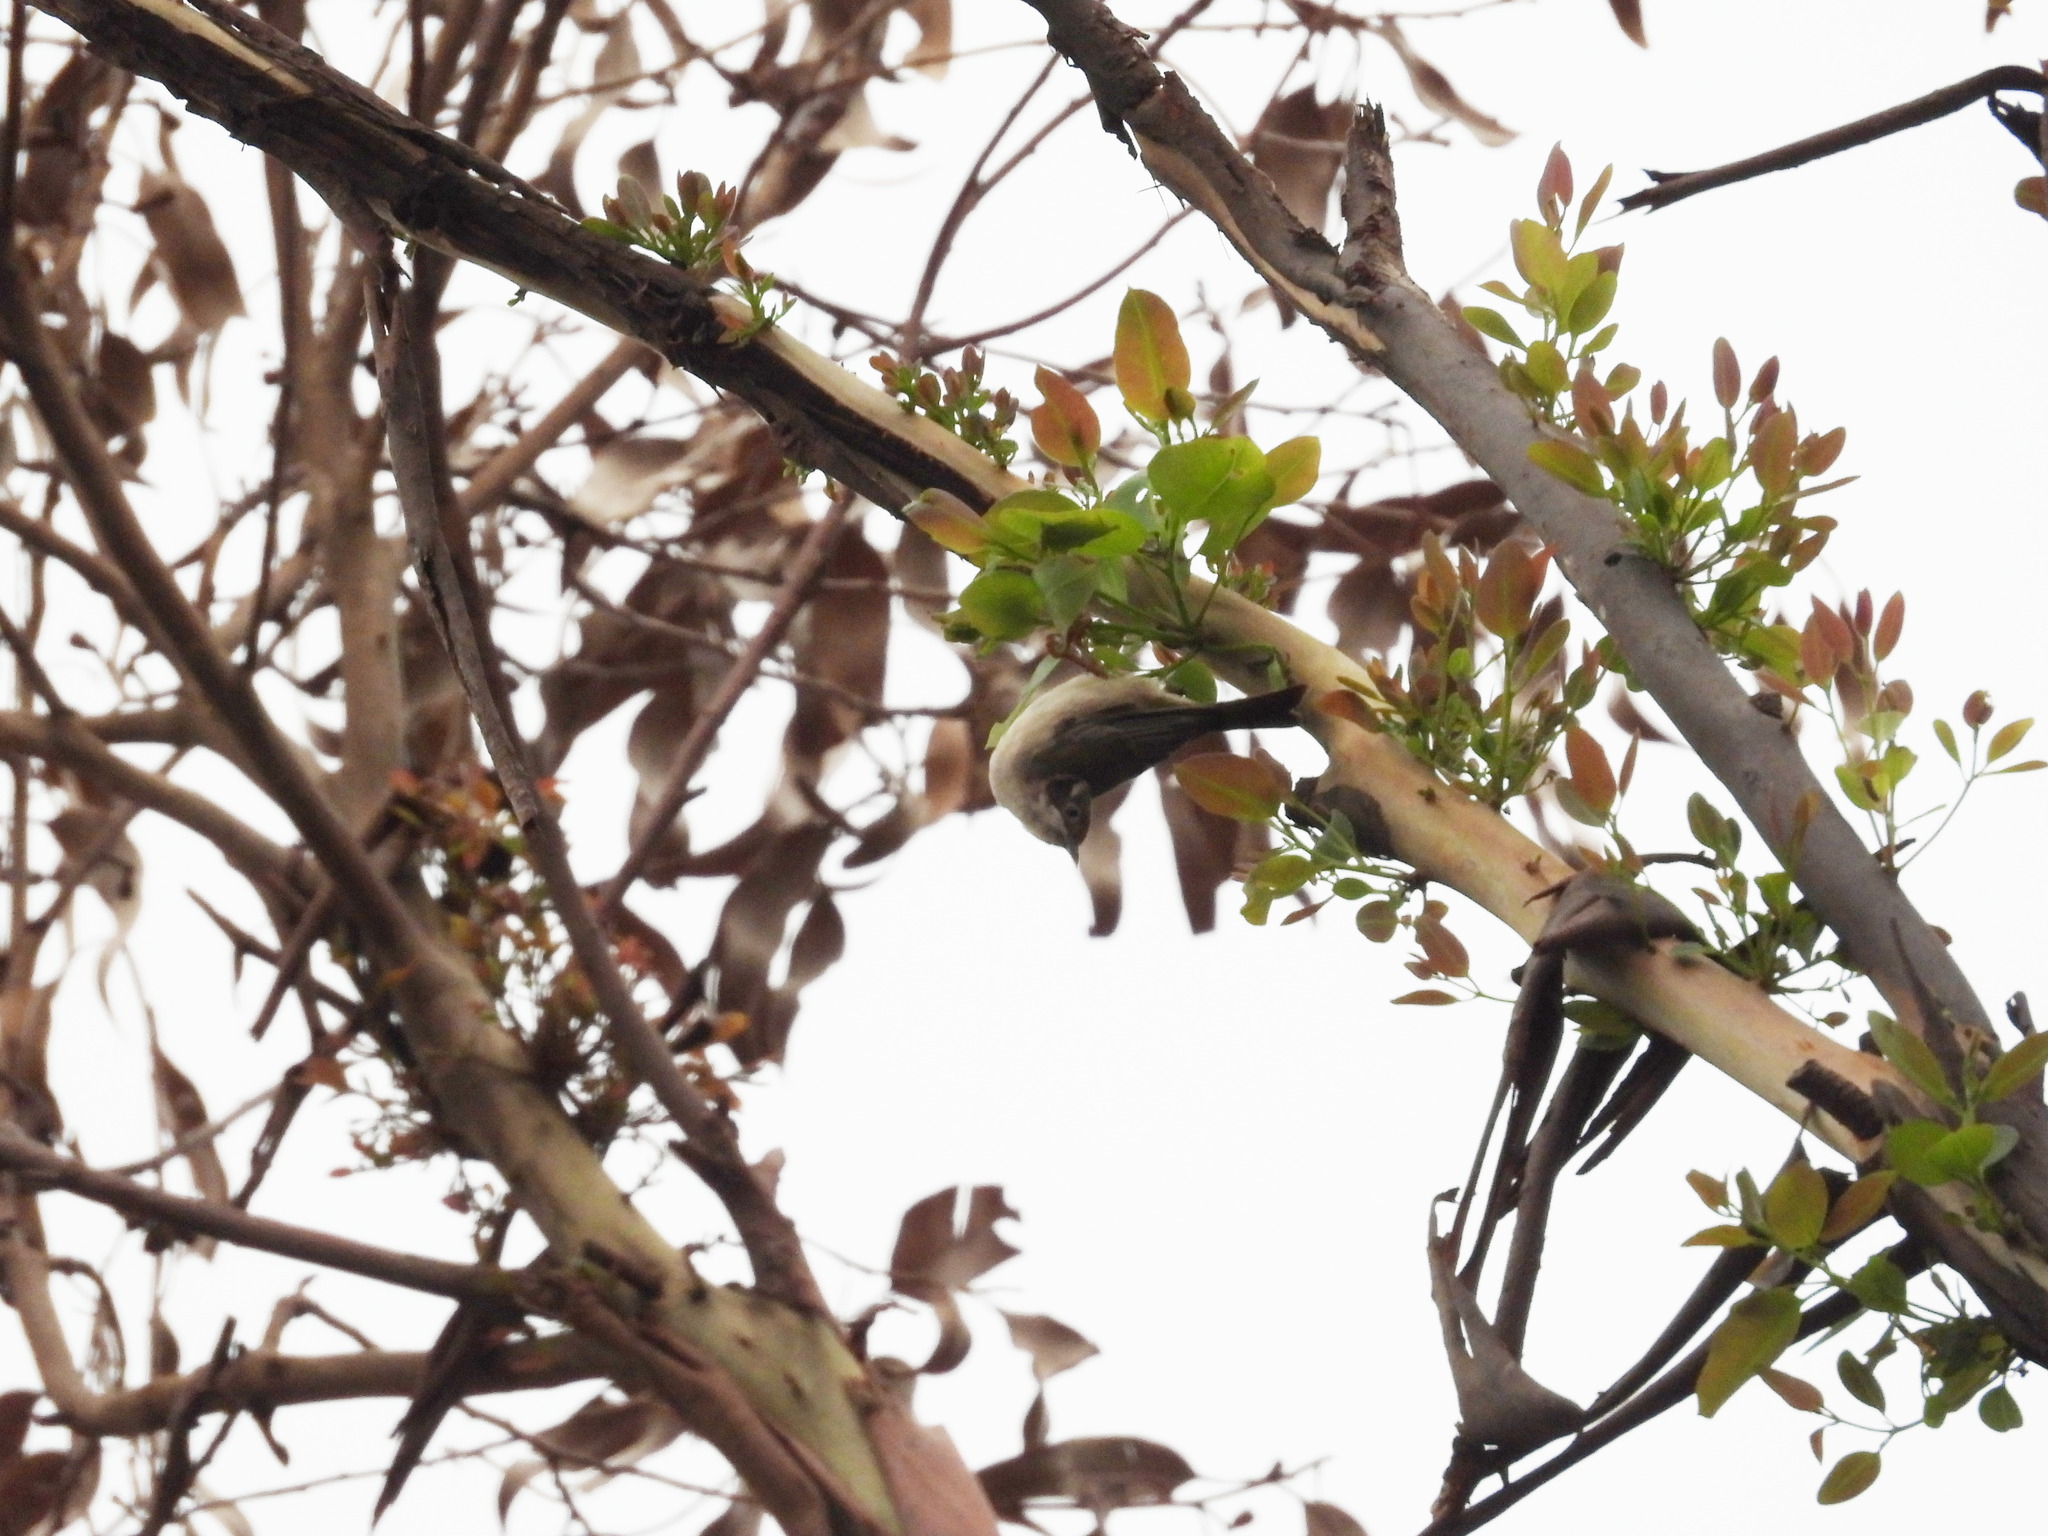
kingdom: Animalia
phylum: Chordata
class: Aves
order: Passeriformes
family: Meliphagidae
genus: Melithreptus
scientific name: Melithreptus brevirostris
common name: Brown-headed honeyeater
